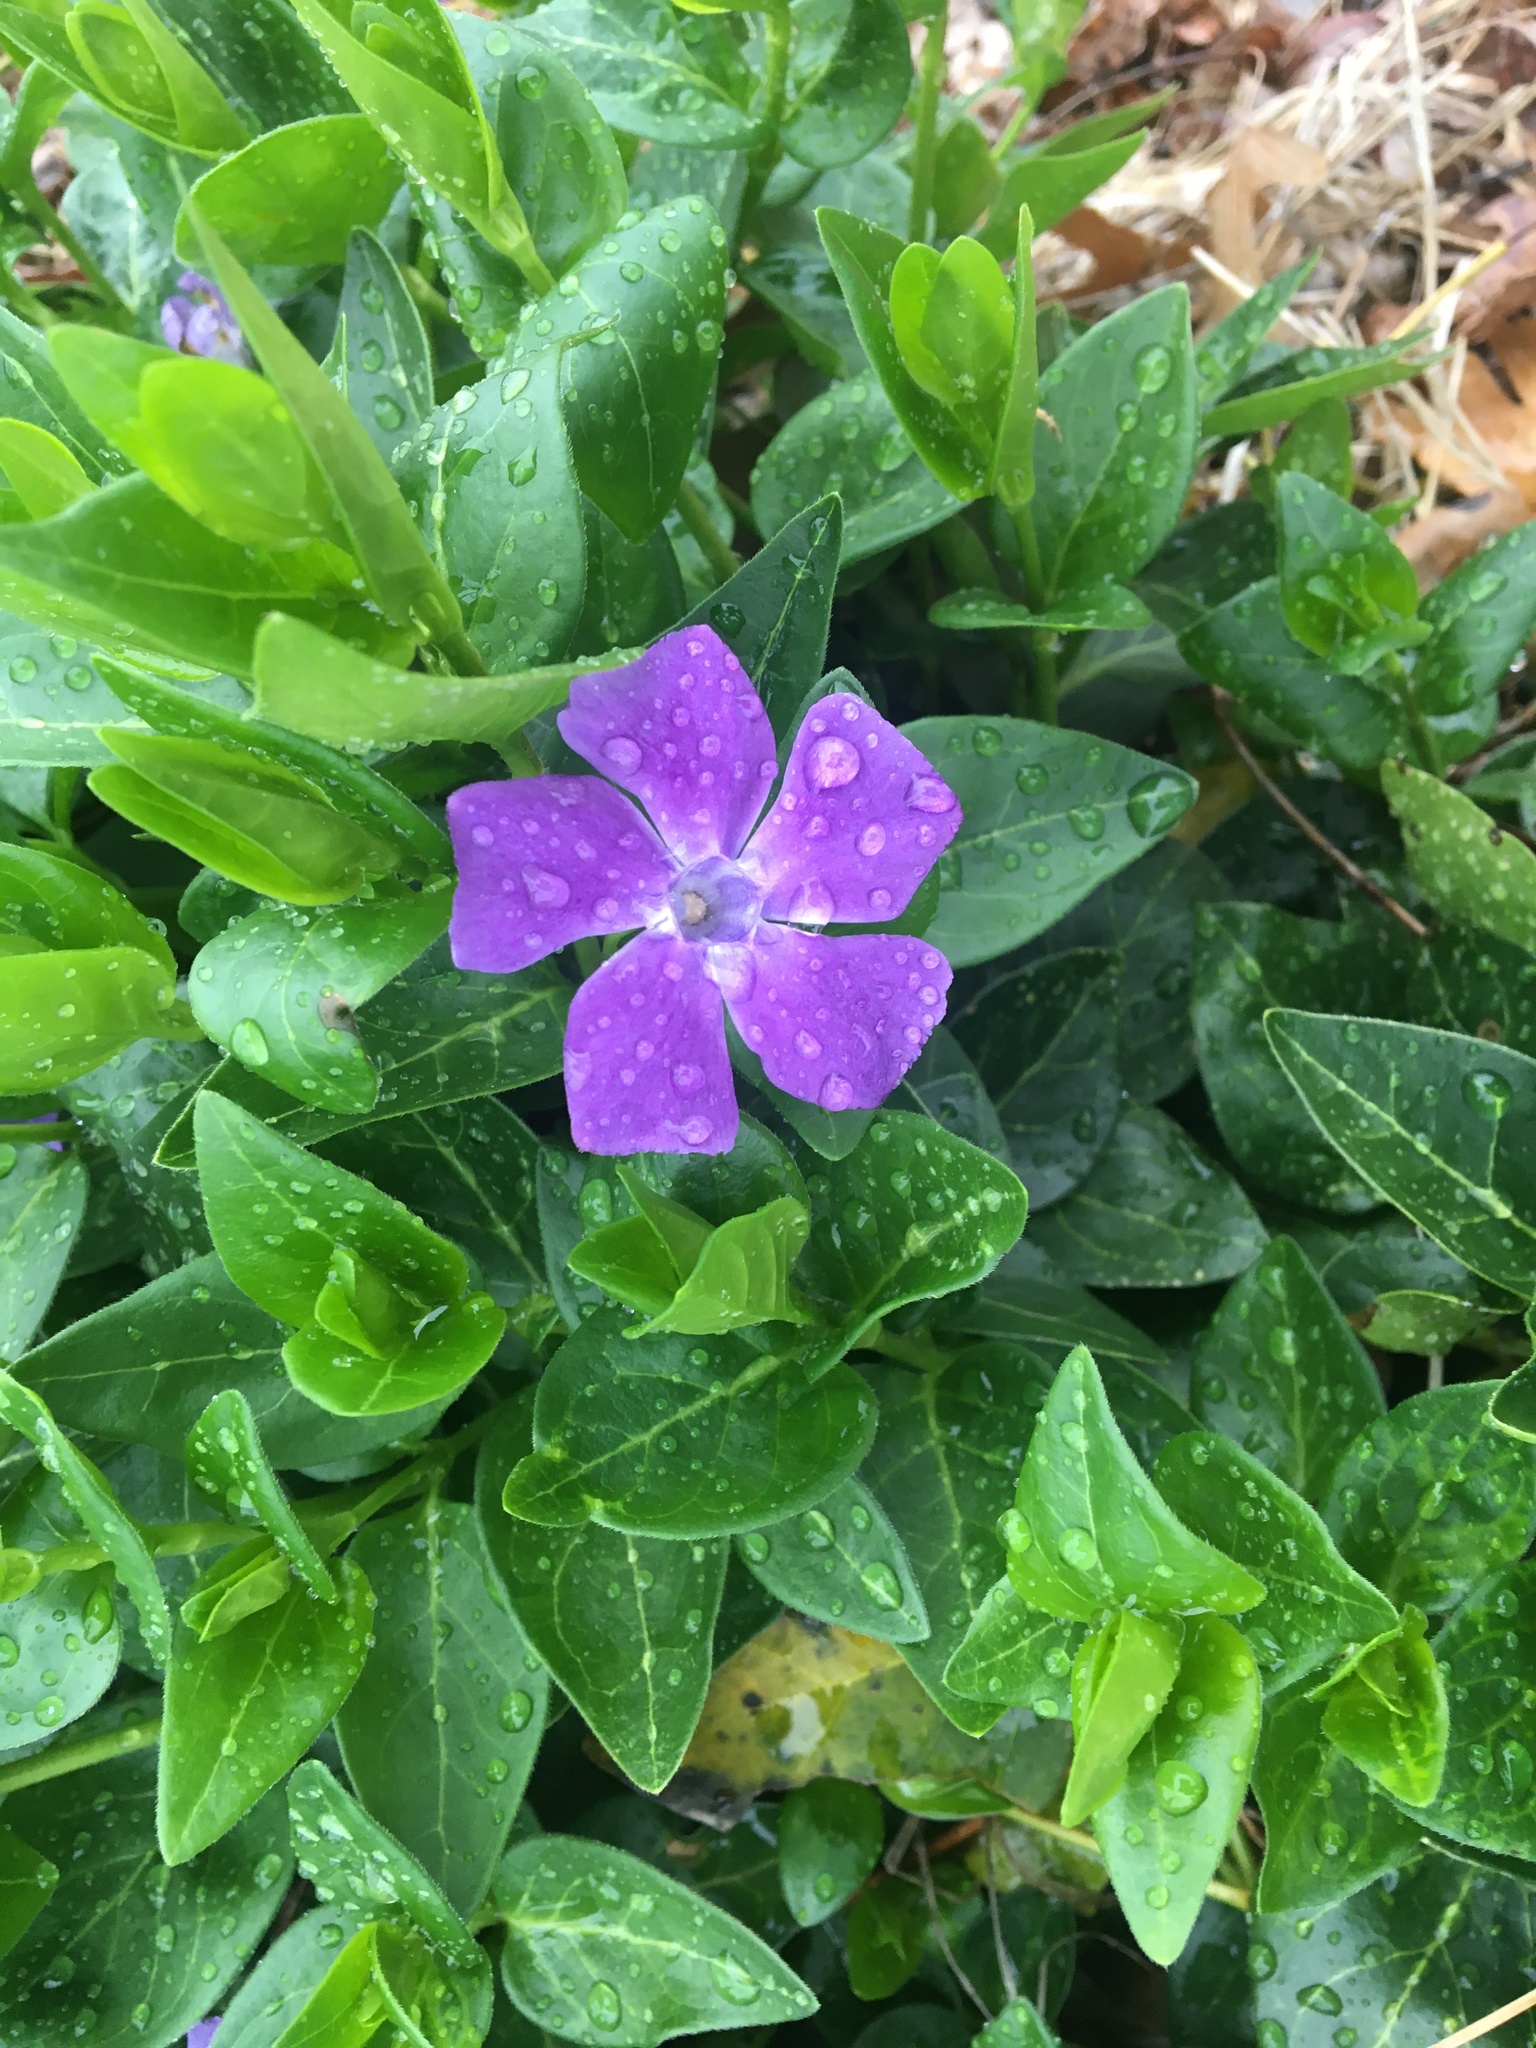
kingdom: Plantae
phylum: Tracheophyta
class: Magnoliopsida
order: Gentianales
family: Apocynaceae
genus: Vinca
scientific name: Vinca major
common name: Greater periwinkle
